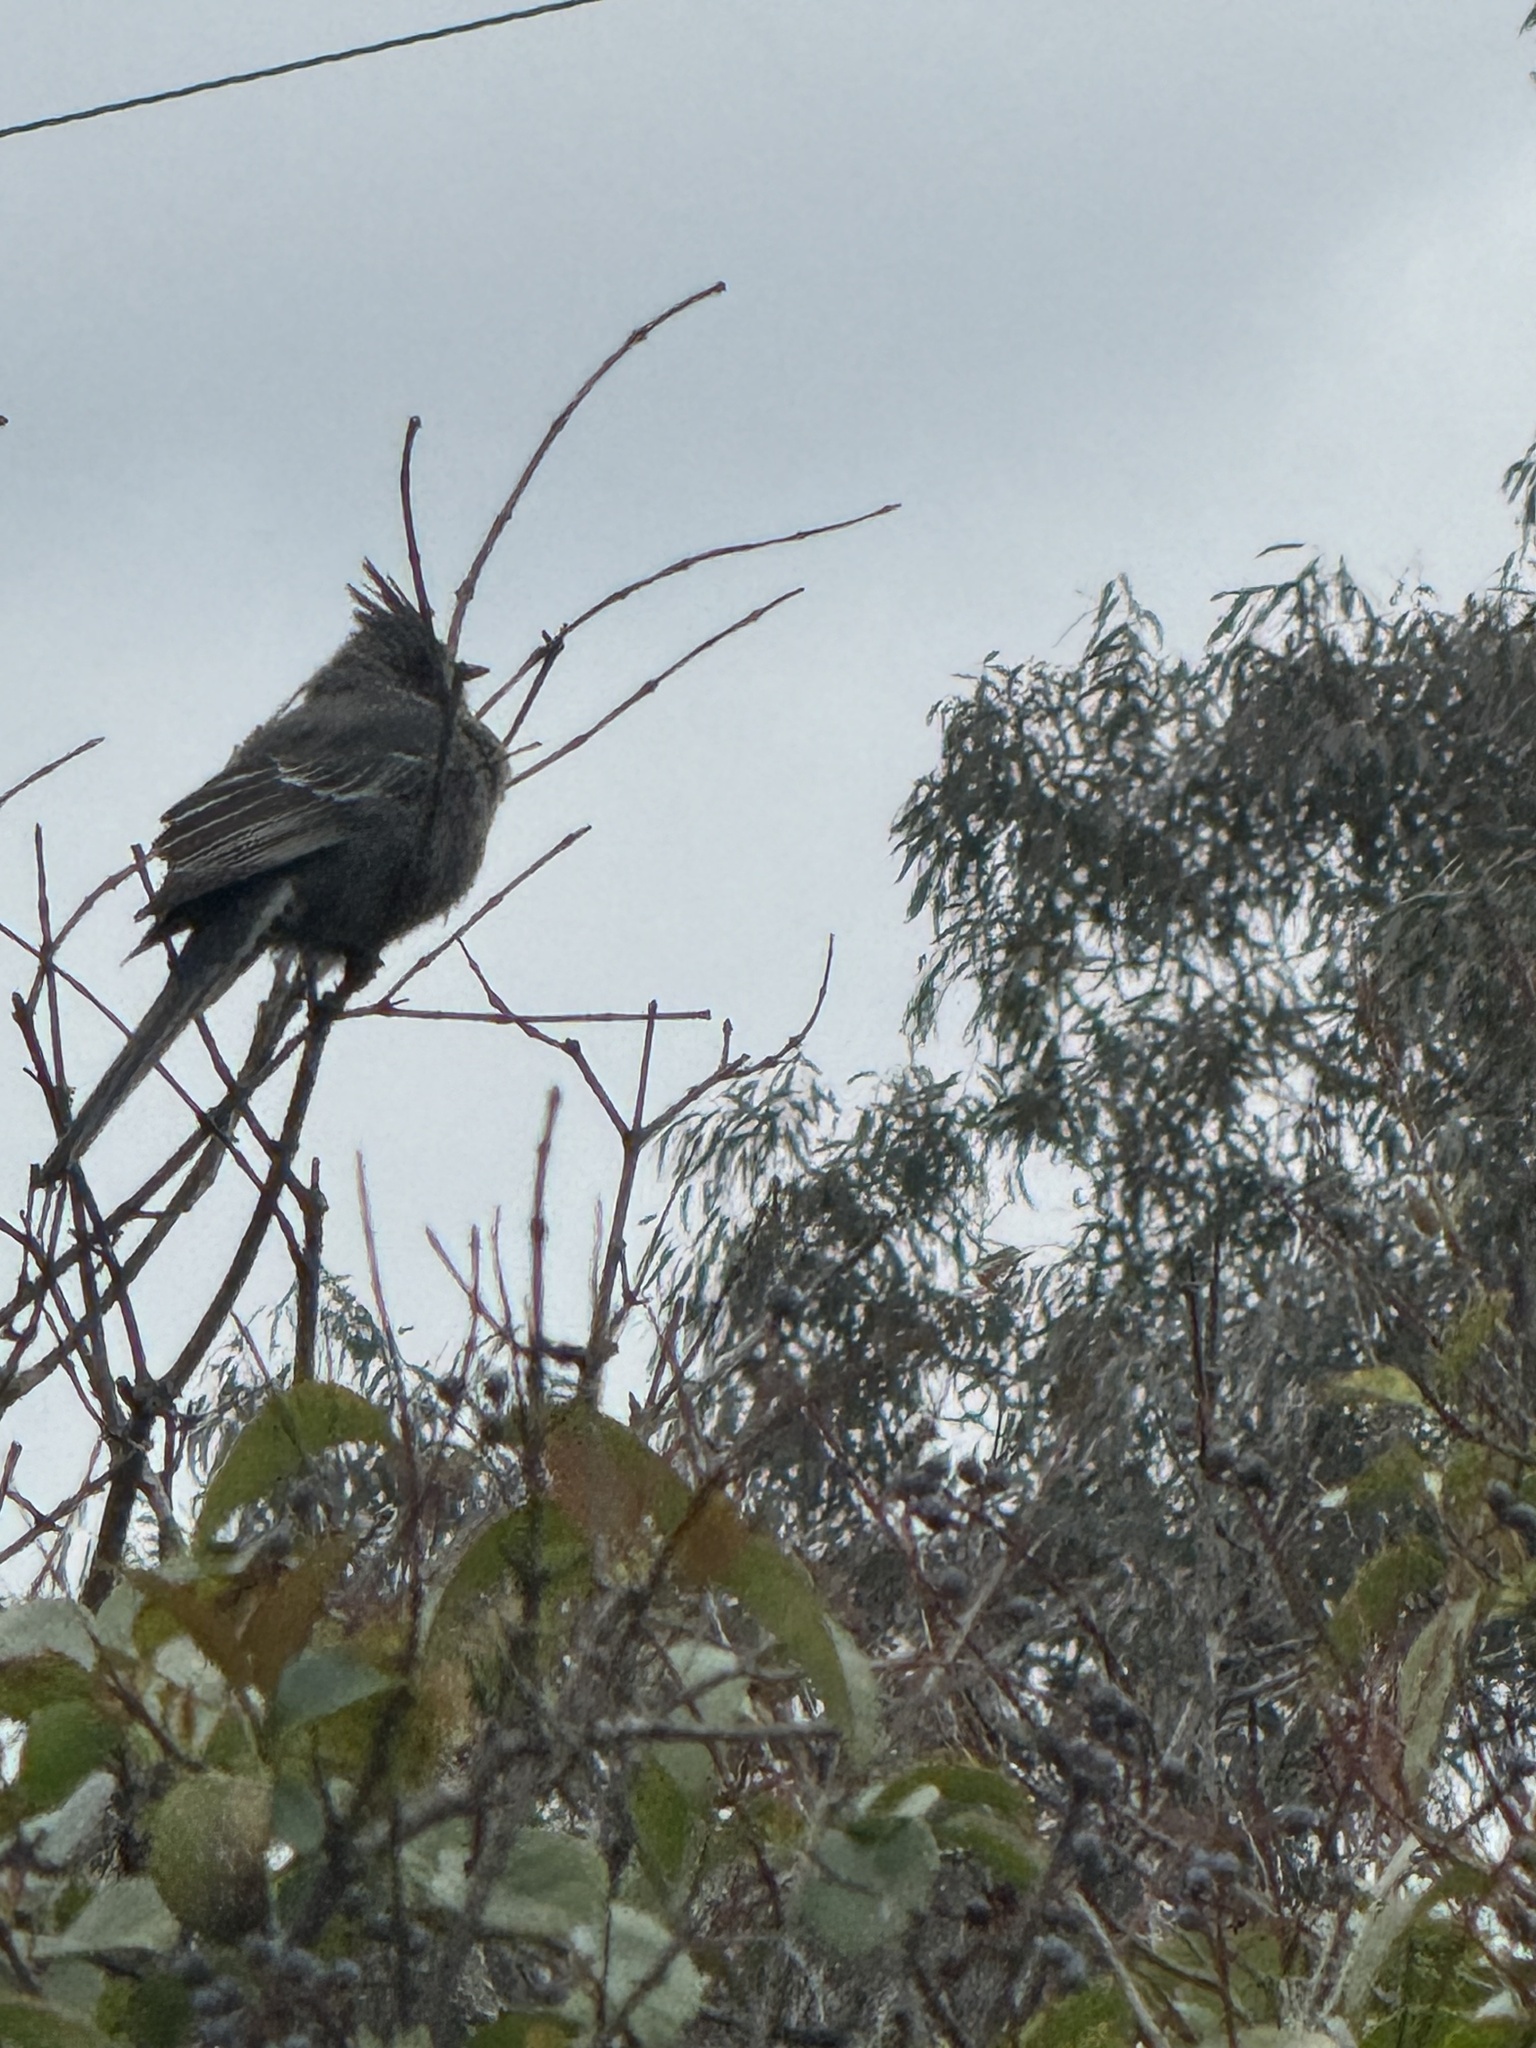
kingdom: Animalia
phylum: Chordata
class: Aves
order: Passeriformes
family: Ptilogonatidae
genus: Phainopepla
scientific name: Phainopepla nitens
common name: Phainopepla
